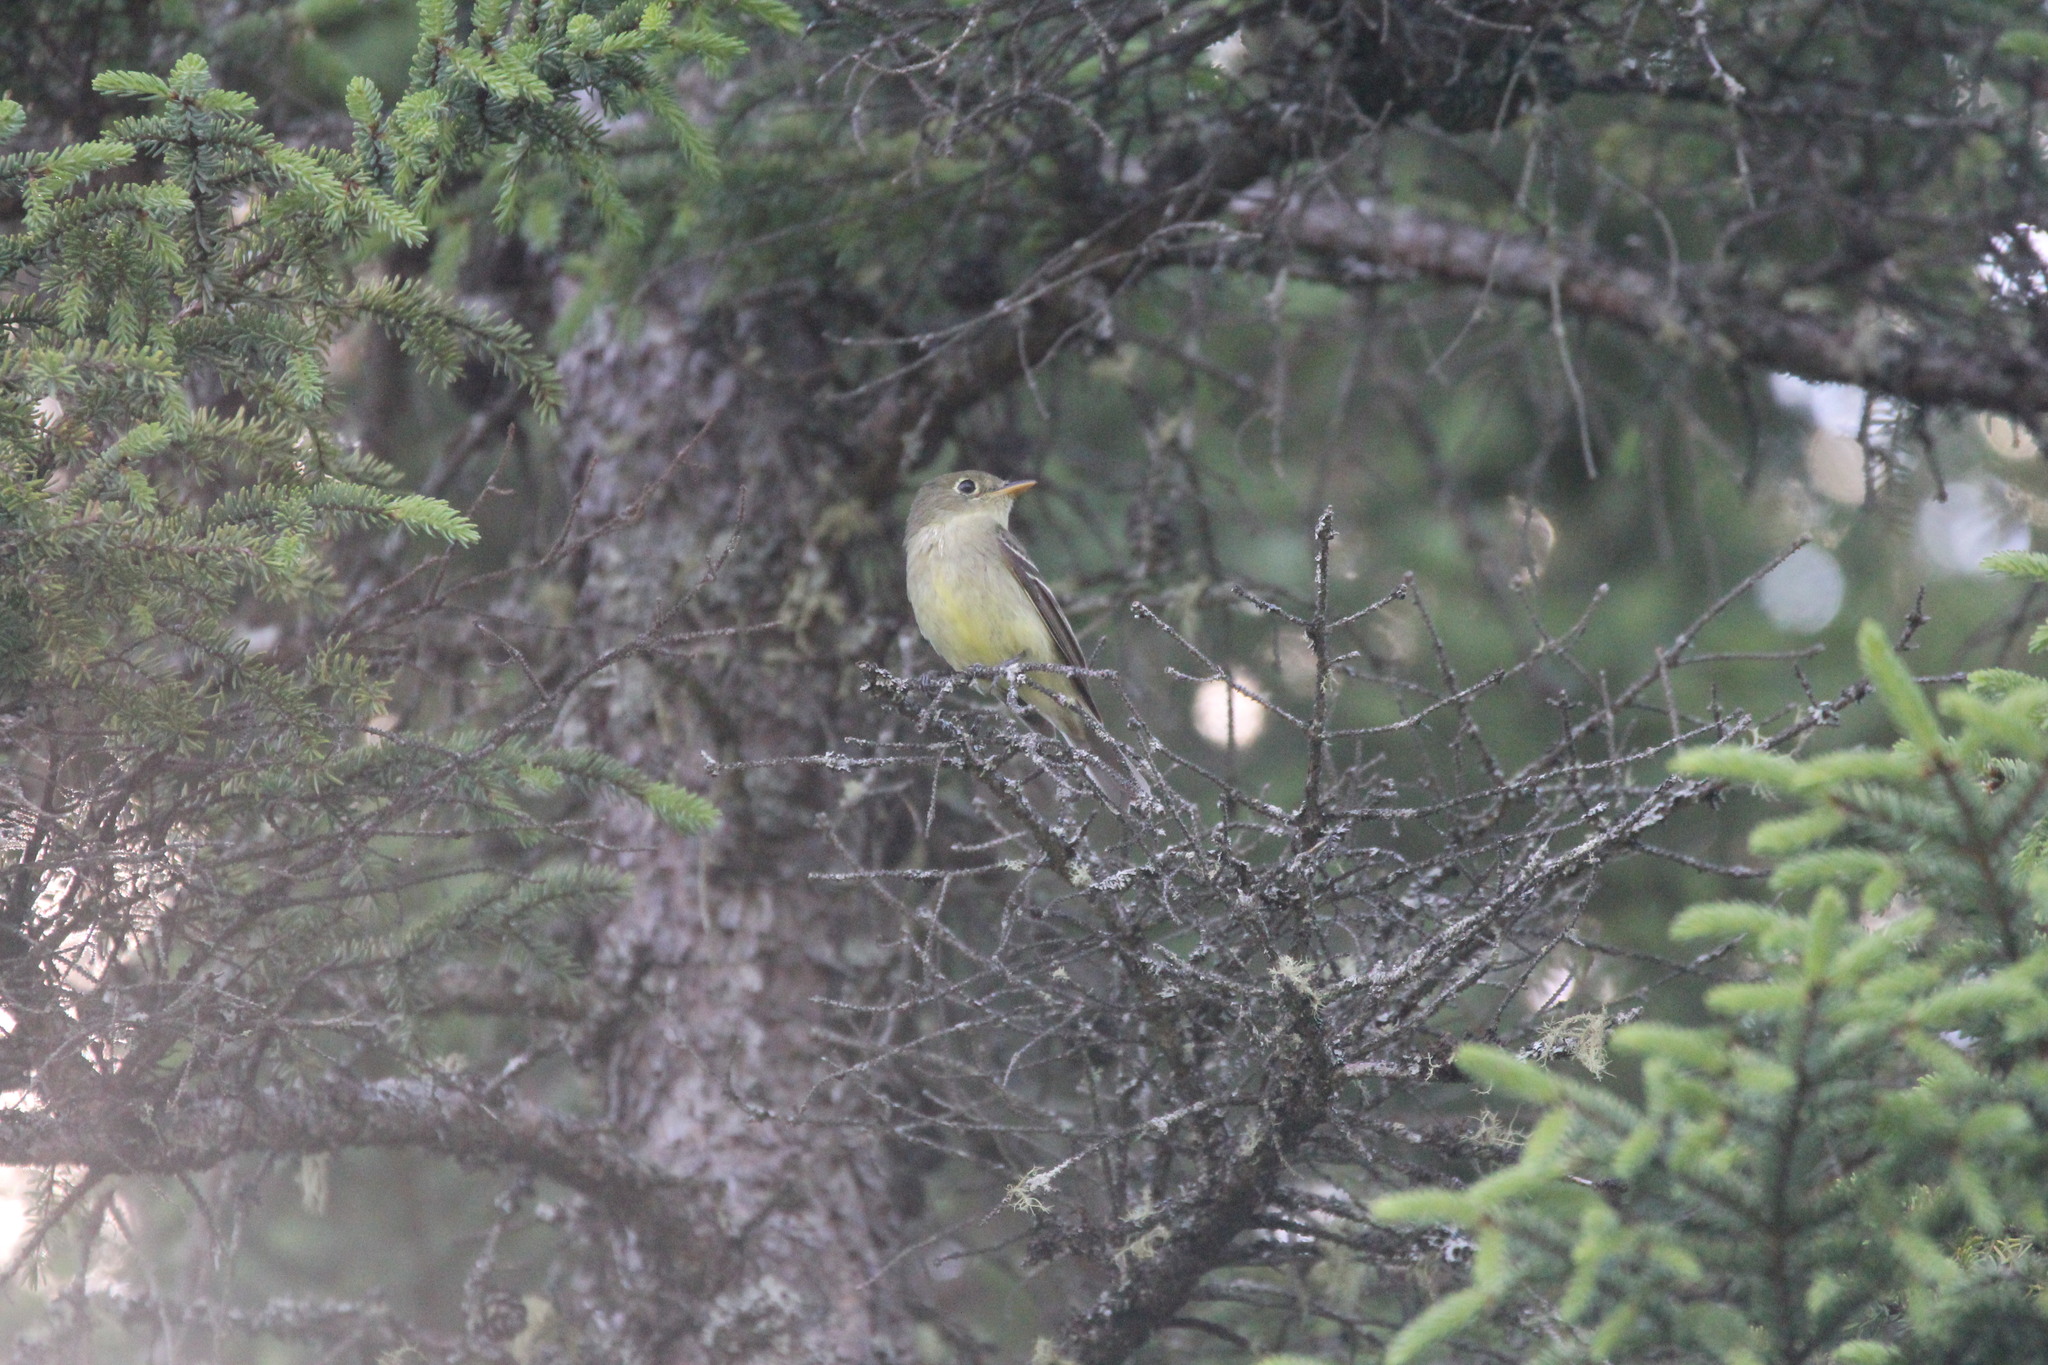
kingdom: Animalia
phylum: Chordata
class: Aves
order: Passeriformes
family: Tyrannidae
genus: Empidonax
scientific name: Empidonax flaviventris
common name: Yellow-bellied flycatcher
